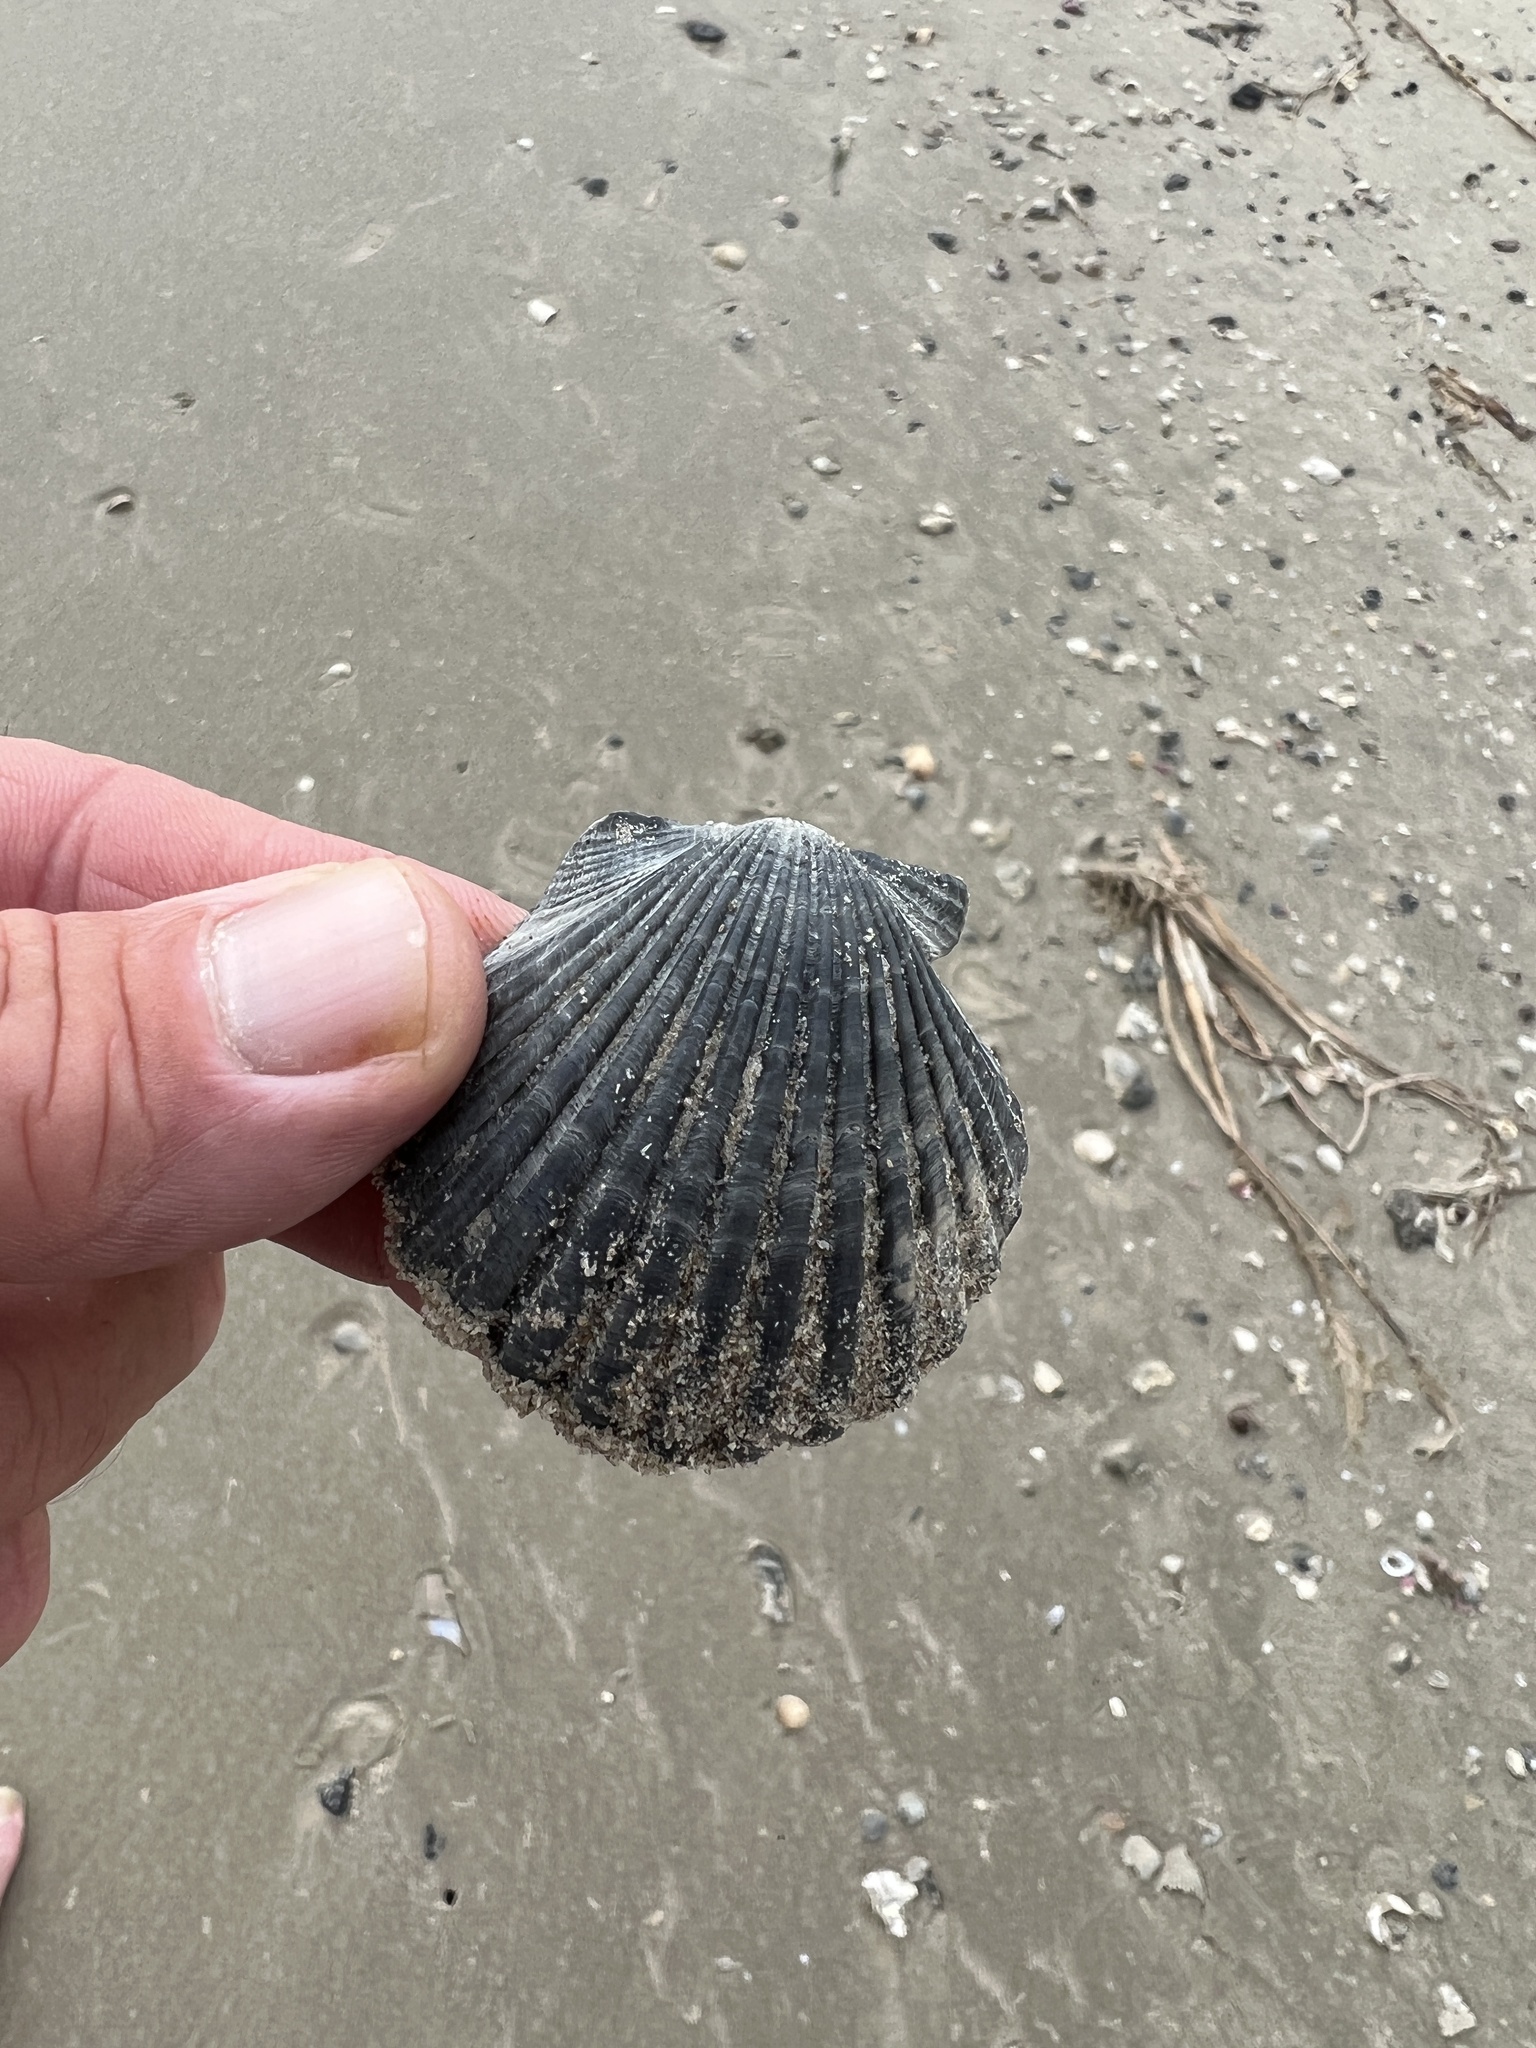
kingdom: Animalia
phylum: Mollusca
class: Bivalvia
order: Pectinida
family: Pectinidae
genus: Argopecten
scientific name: Argopecten irradians
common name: Atlantic bay scallop
